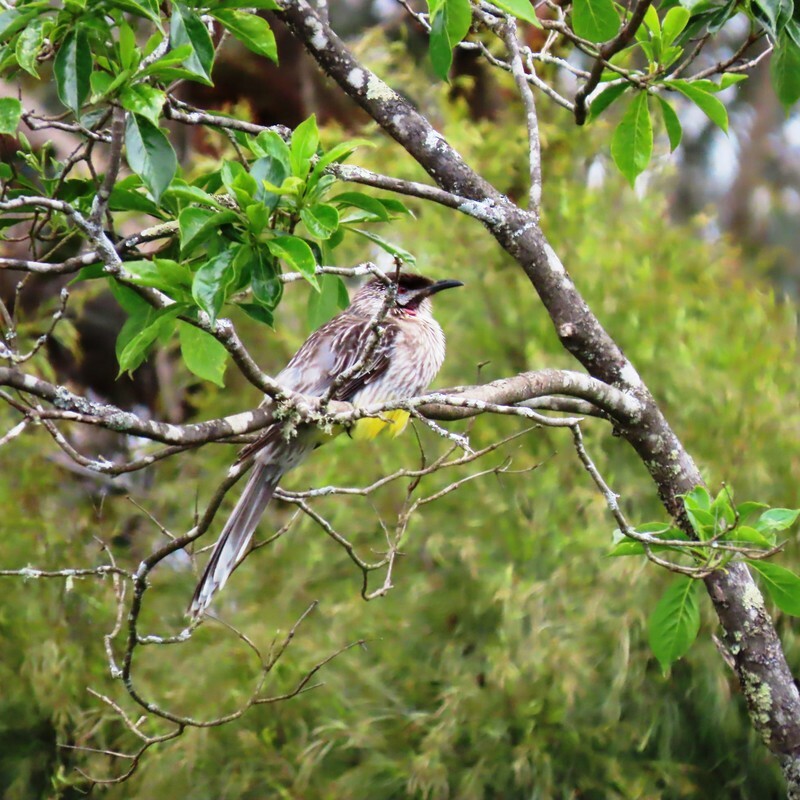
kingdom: Animalia
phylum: Chordata
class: Aves
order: Passeriformes
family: Meliphagidae
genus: Anthochaera
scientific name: Anthochaera carunculata
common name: Red wattlebird
